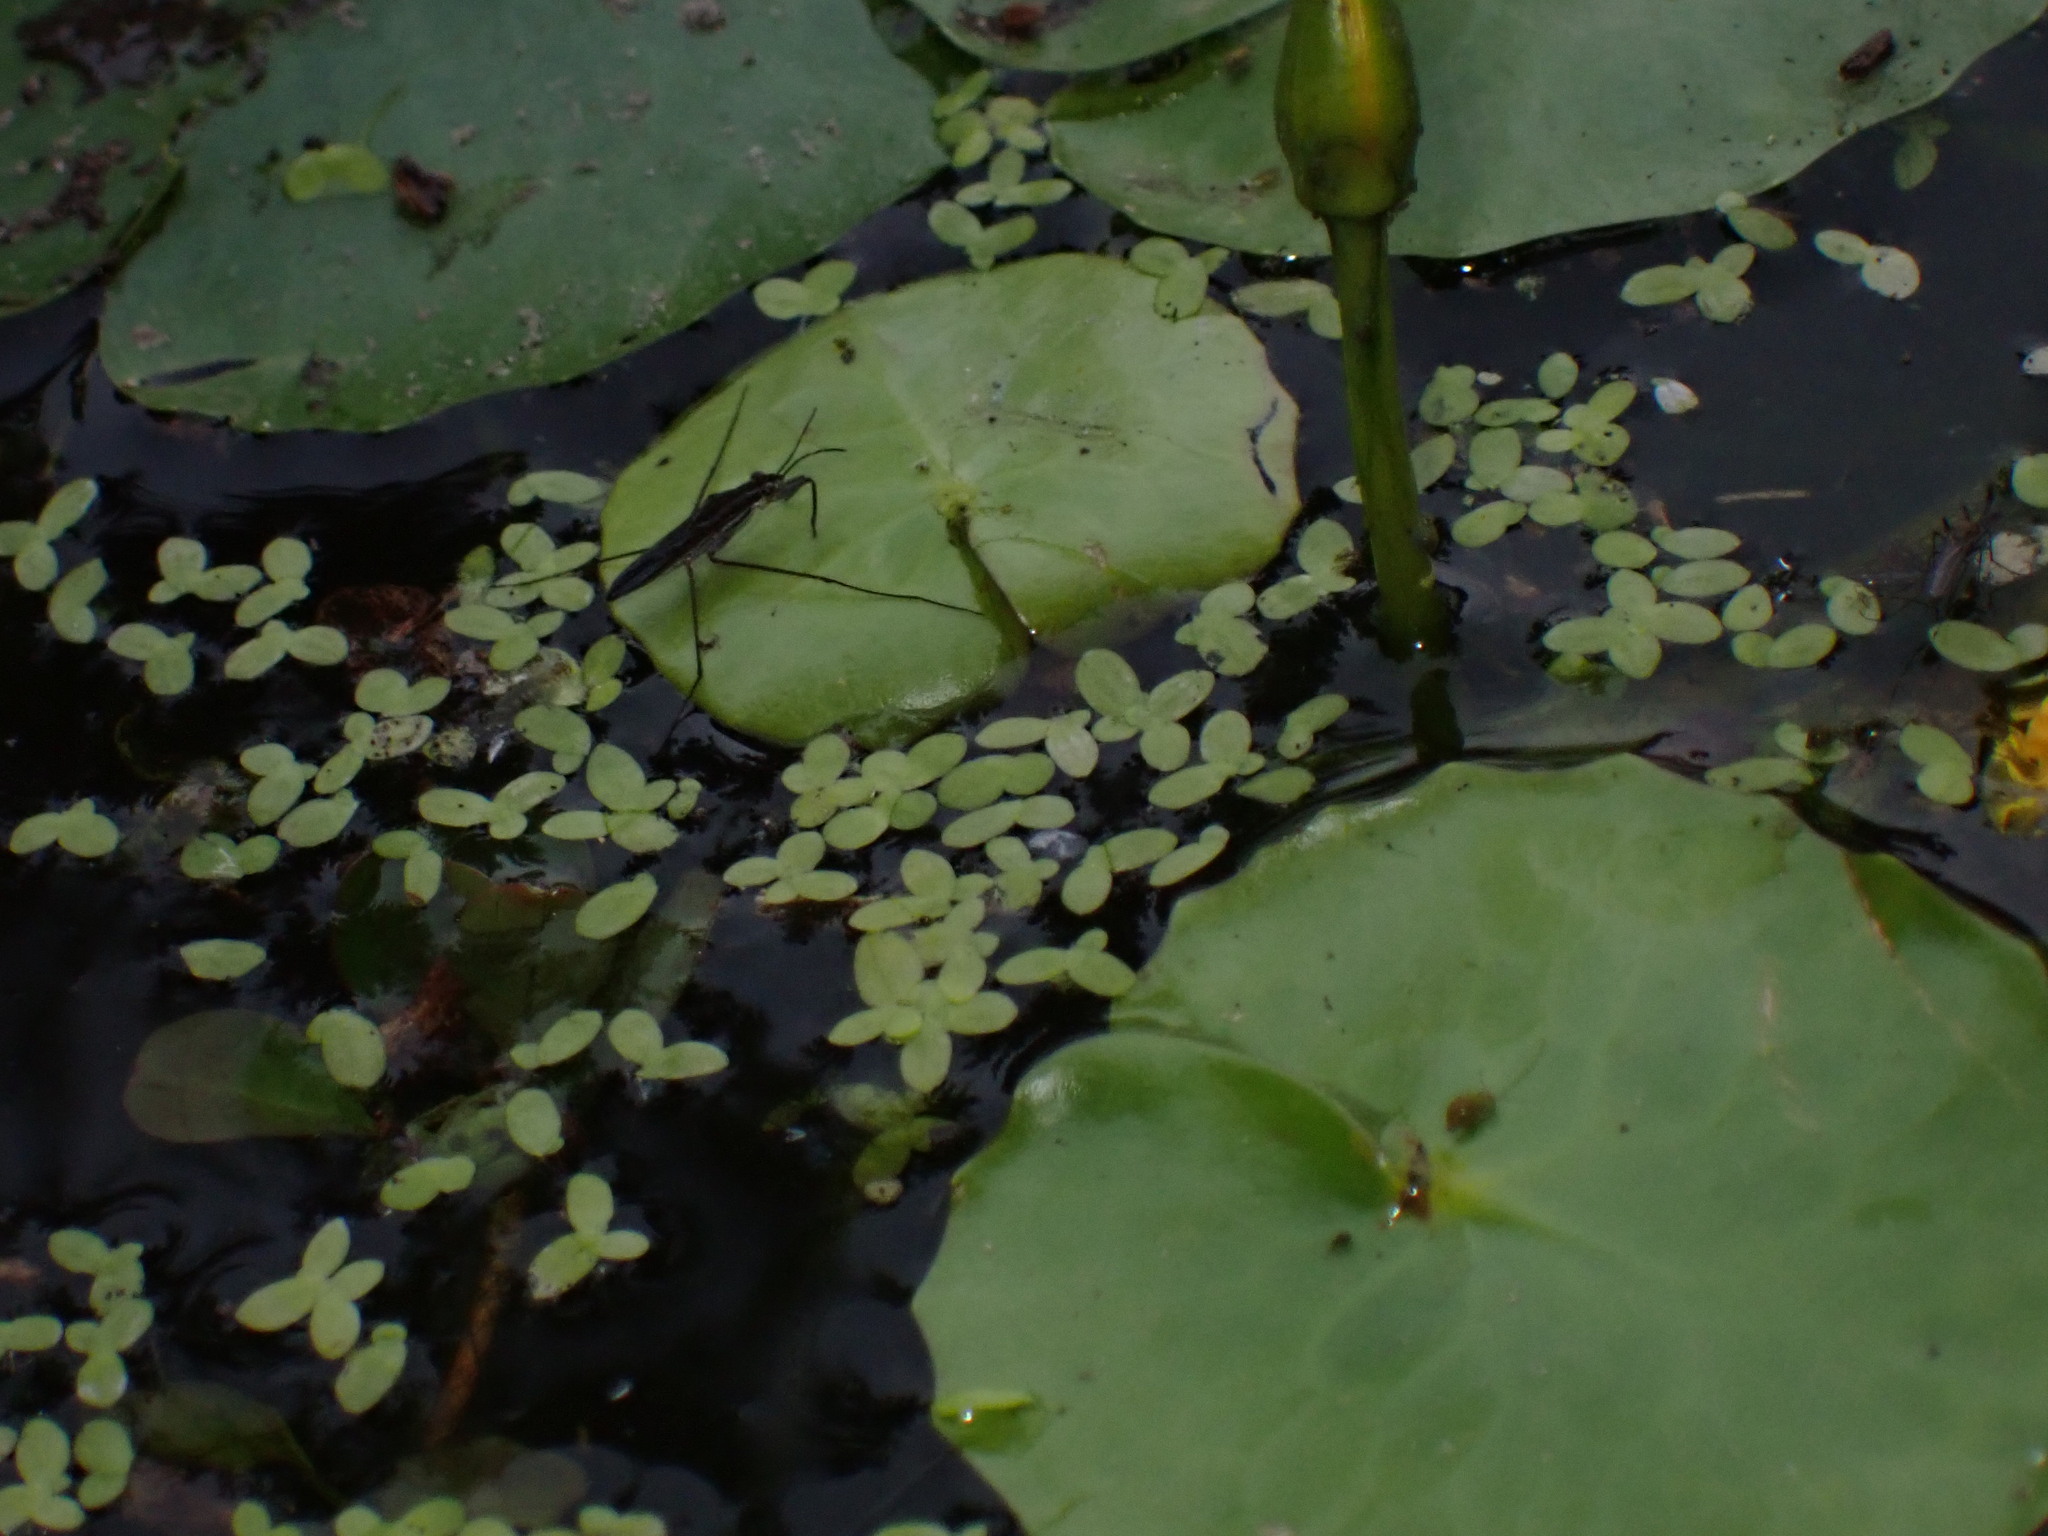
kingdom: Animalia
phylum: Arthropoda
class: Insecta
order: Hemiptera
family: Gerridae
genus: Gerris
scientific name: Gerris
